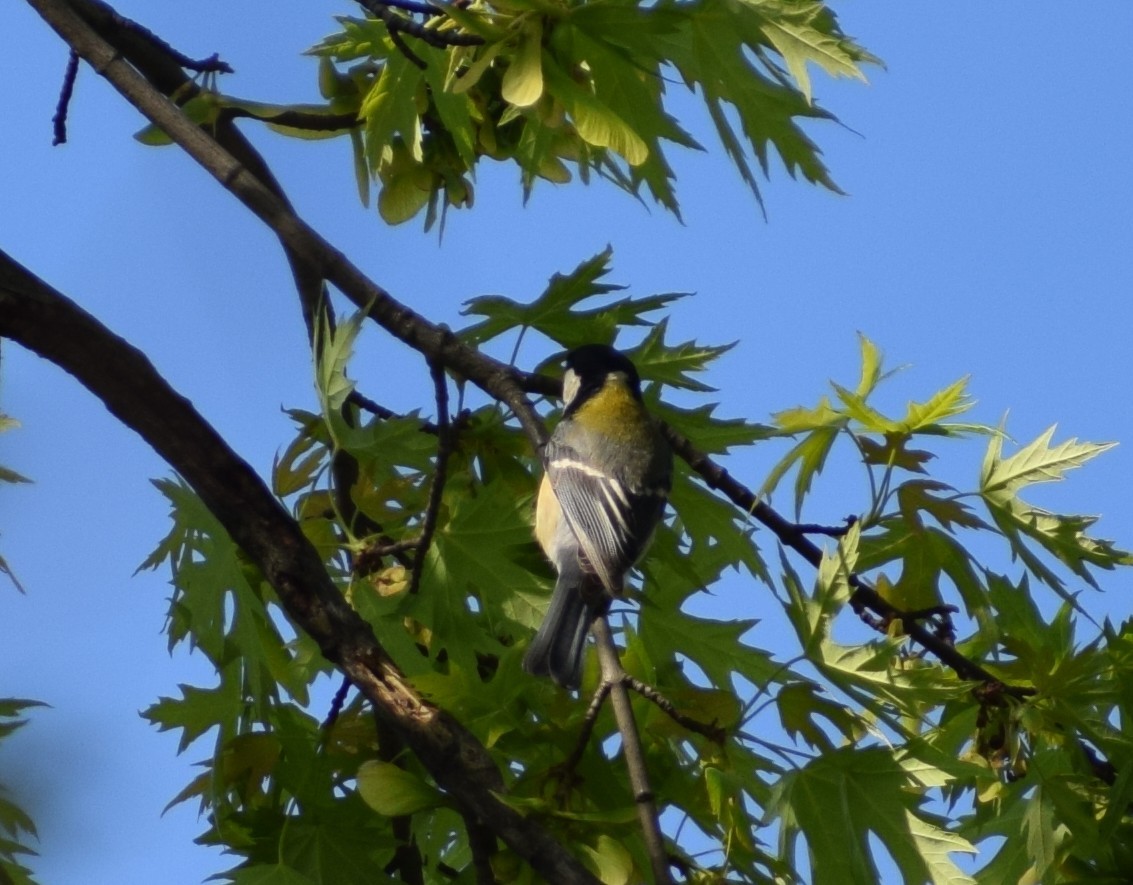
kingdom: Animalia
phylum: Chordata
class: Aves
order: Passeriformes
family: Paridae
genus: Parus
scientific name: Parus major
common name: Great tit
